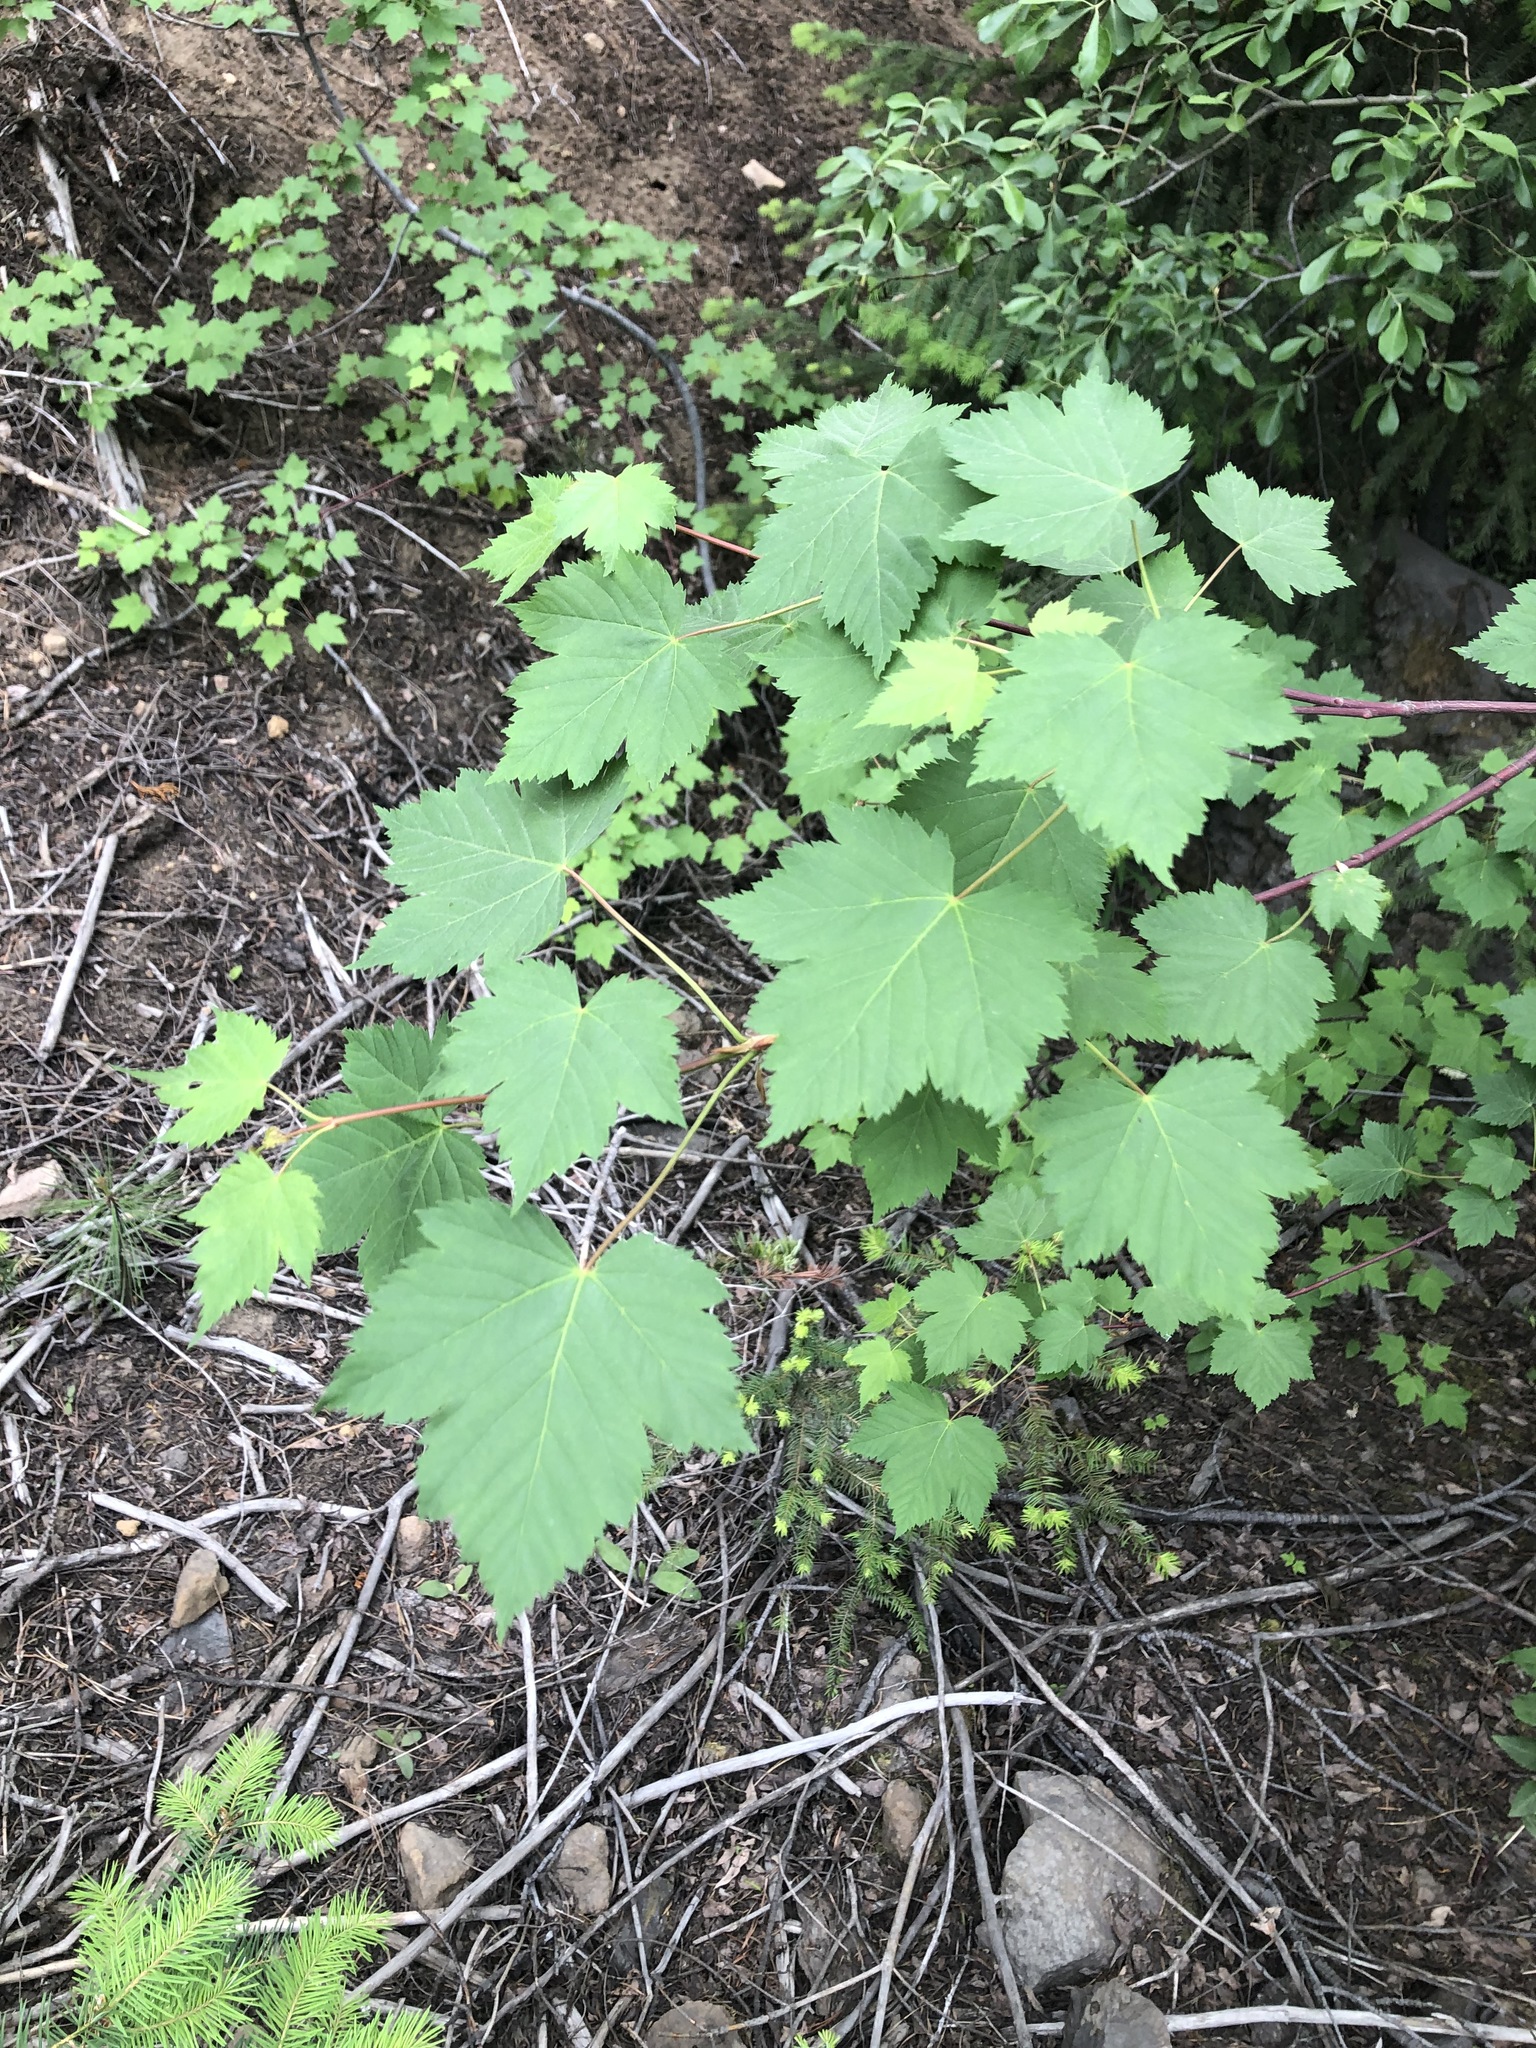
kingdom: Plantae
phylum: Tracheophyta
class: Magnoliopsida
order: Sapindales
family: Sapindaceae
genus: Acer
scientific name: Acer glabrum
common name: Rocky mountain maple
